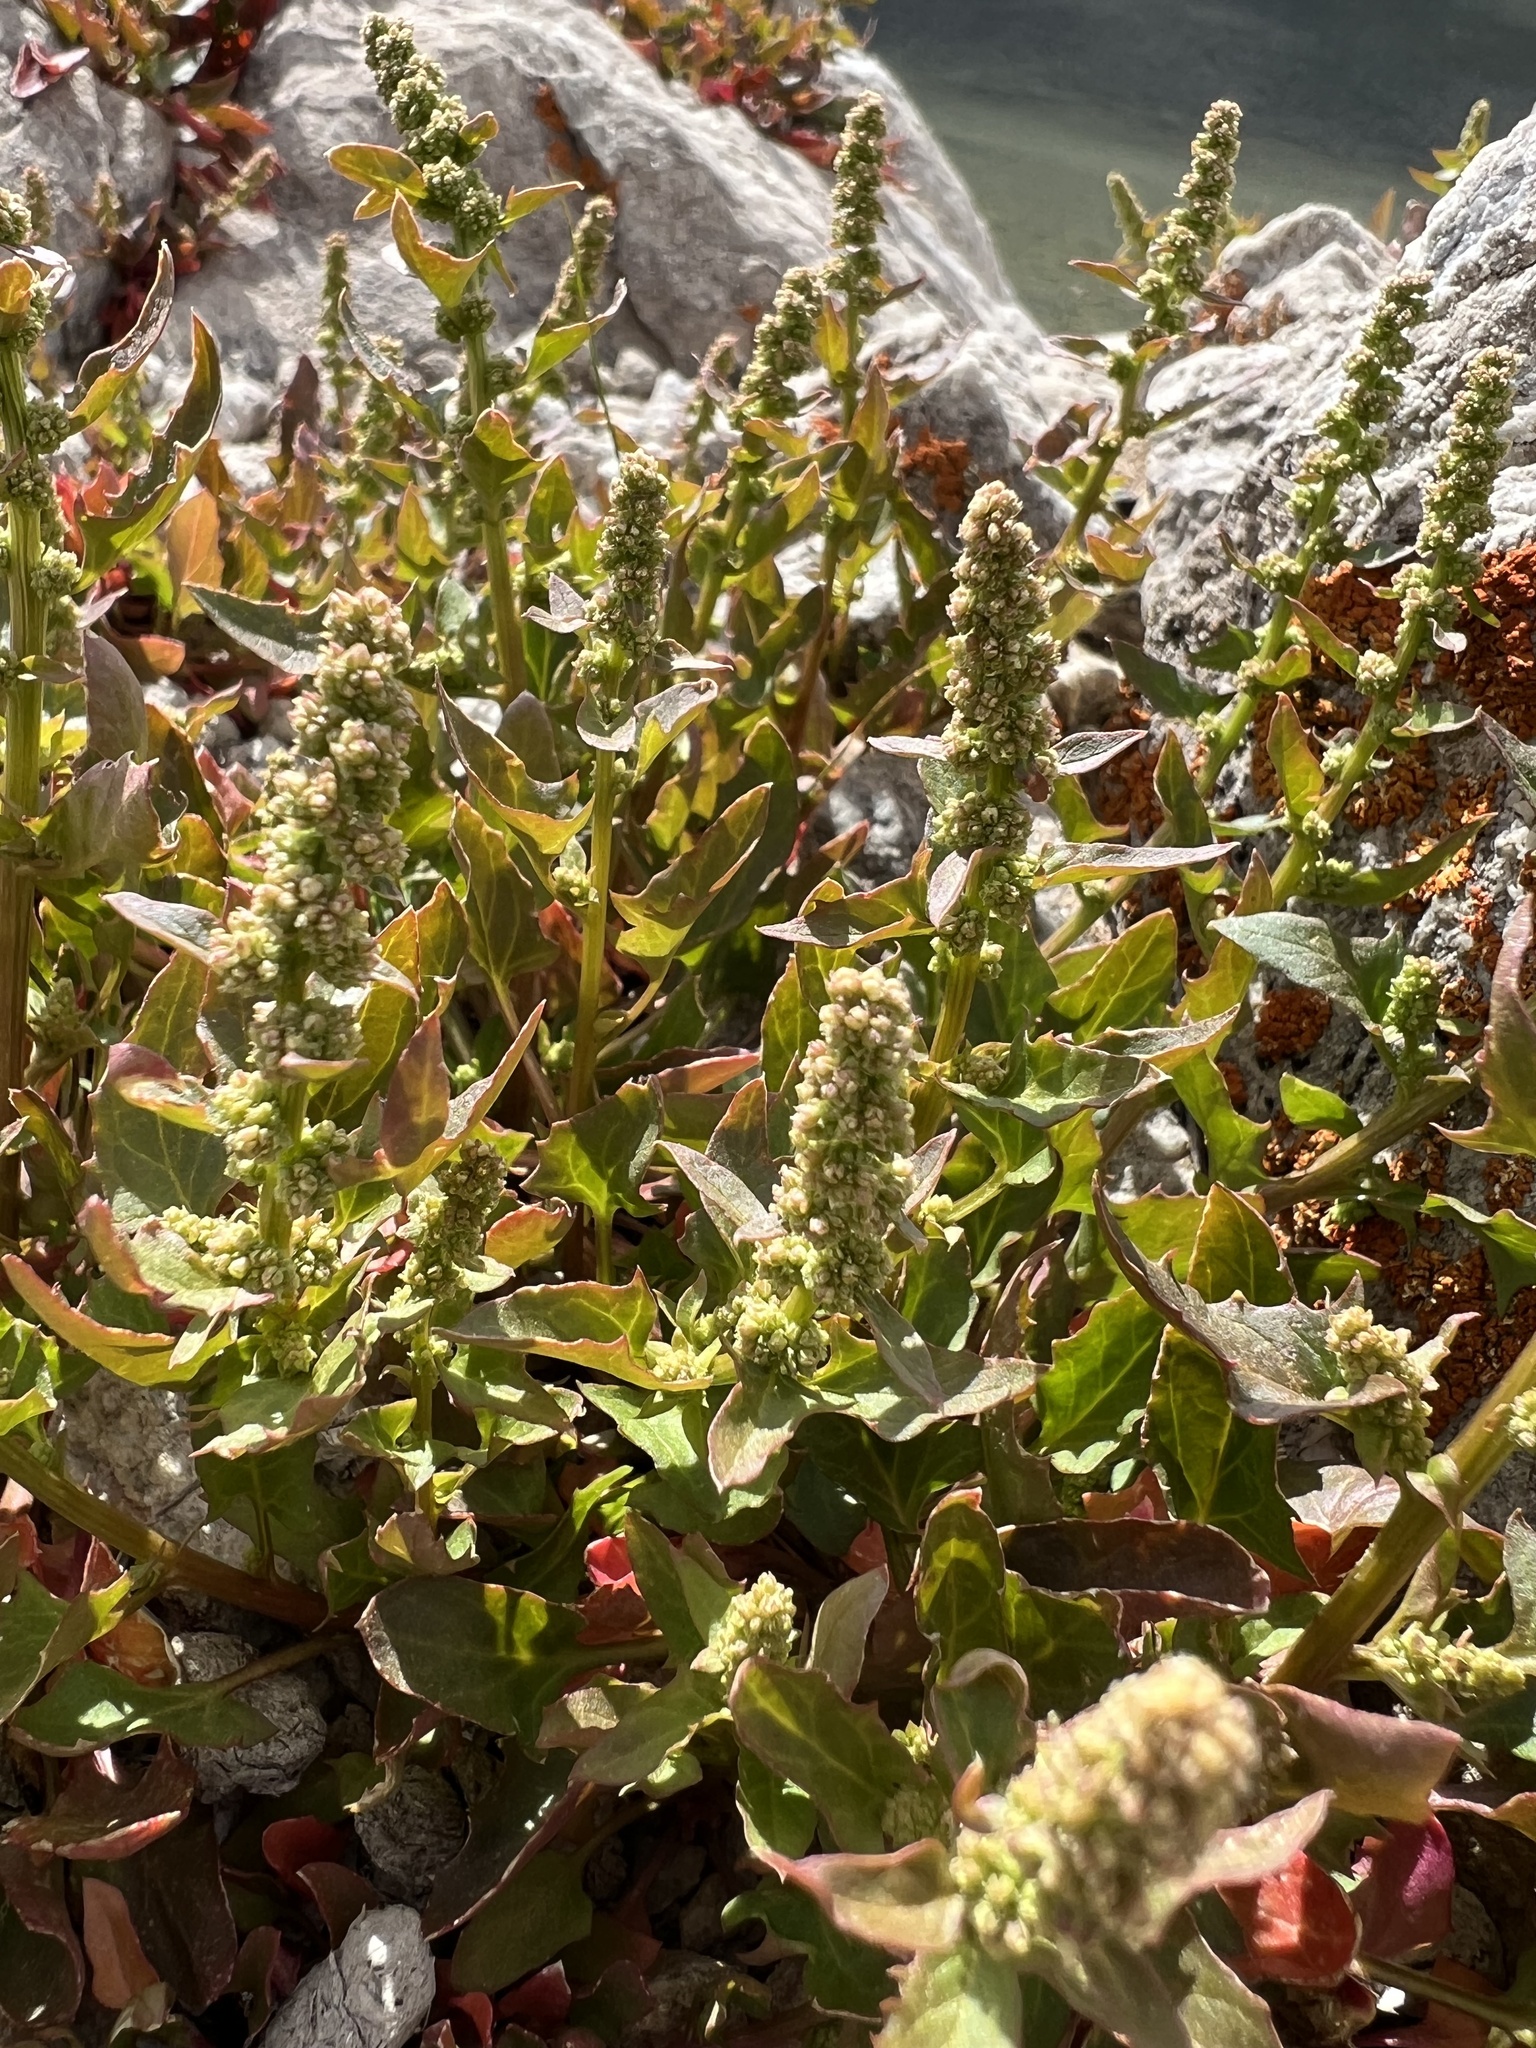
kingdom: Plantae
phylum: Tracheophyta
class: Magnoliopsida
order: Caryophyllales
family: Amaranthaceae
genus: Blitum
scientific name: Blitum capitatum
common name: Strawberry-blight
